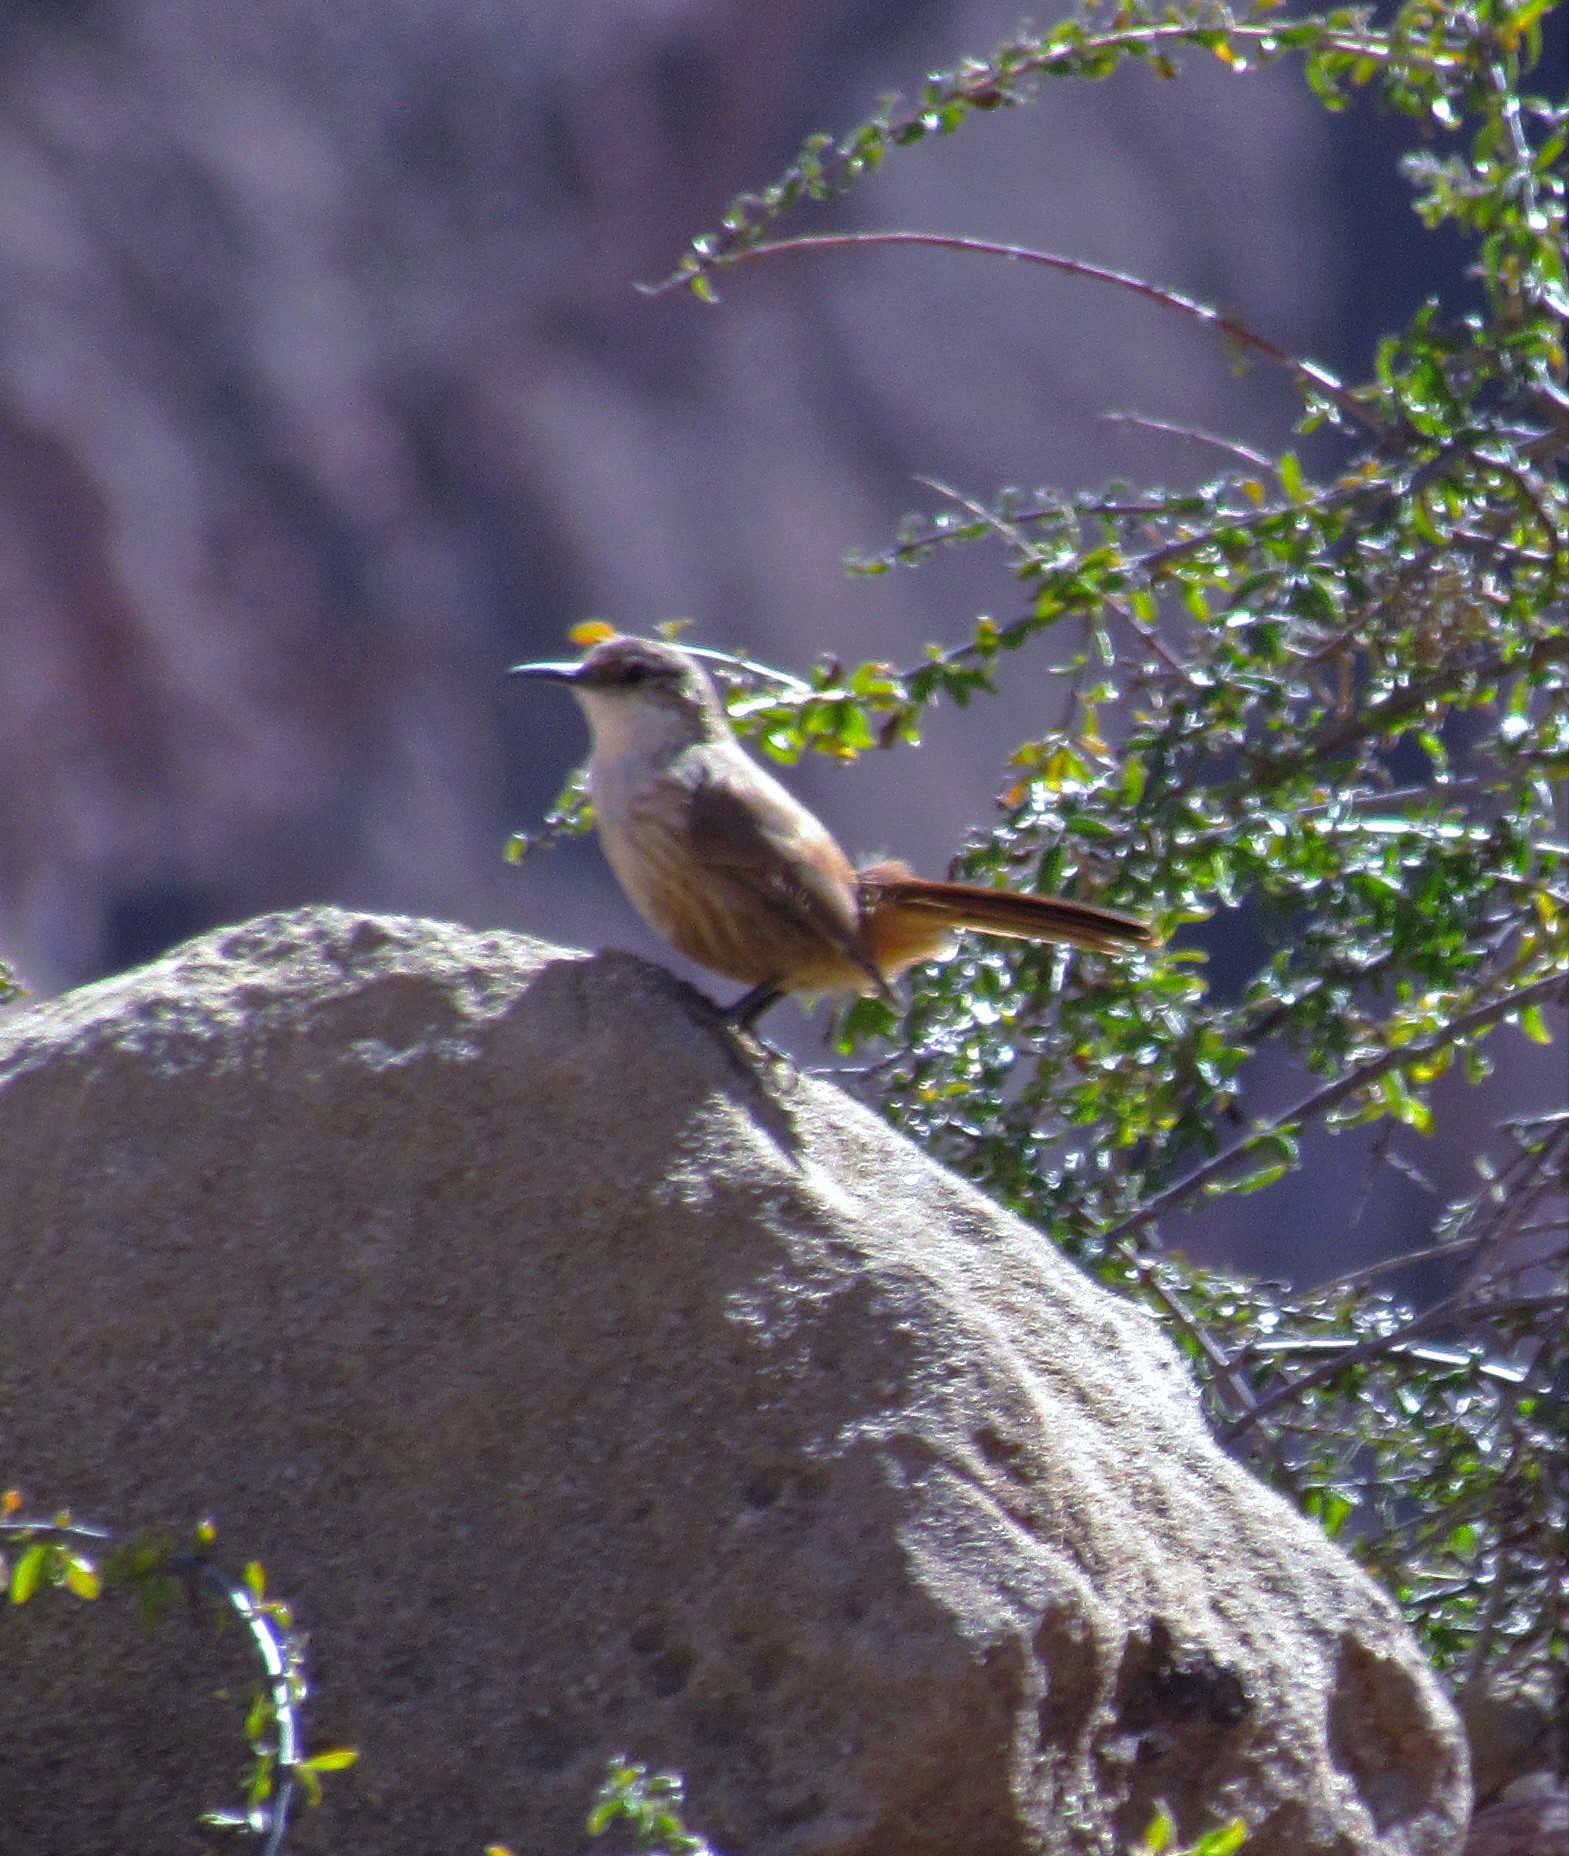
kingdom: Animalia
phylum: Chordata
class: Aves
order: Passeriformes
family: Furnariidae
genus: Upucerthia
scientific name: Upucerthia ruficaudus
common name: Straight-billed earthcreeper
